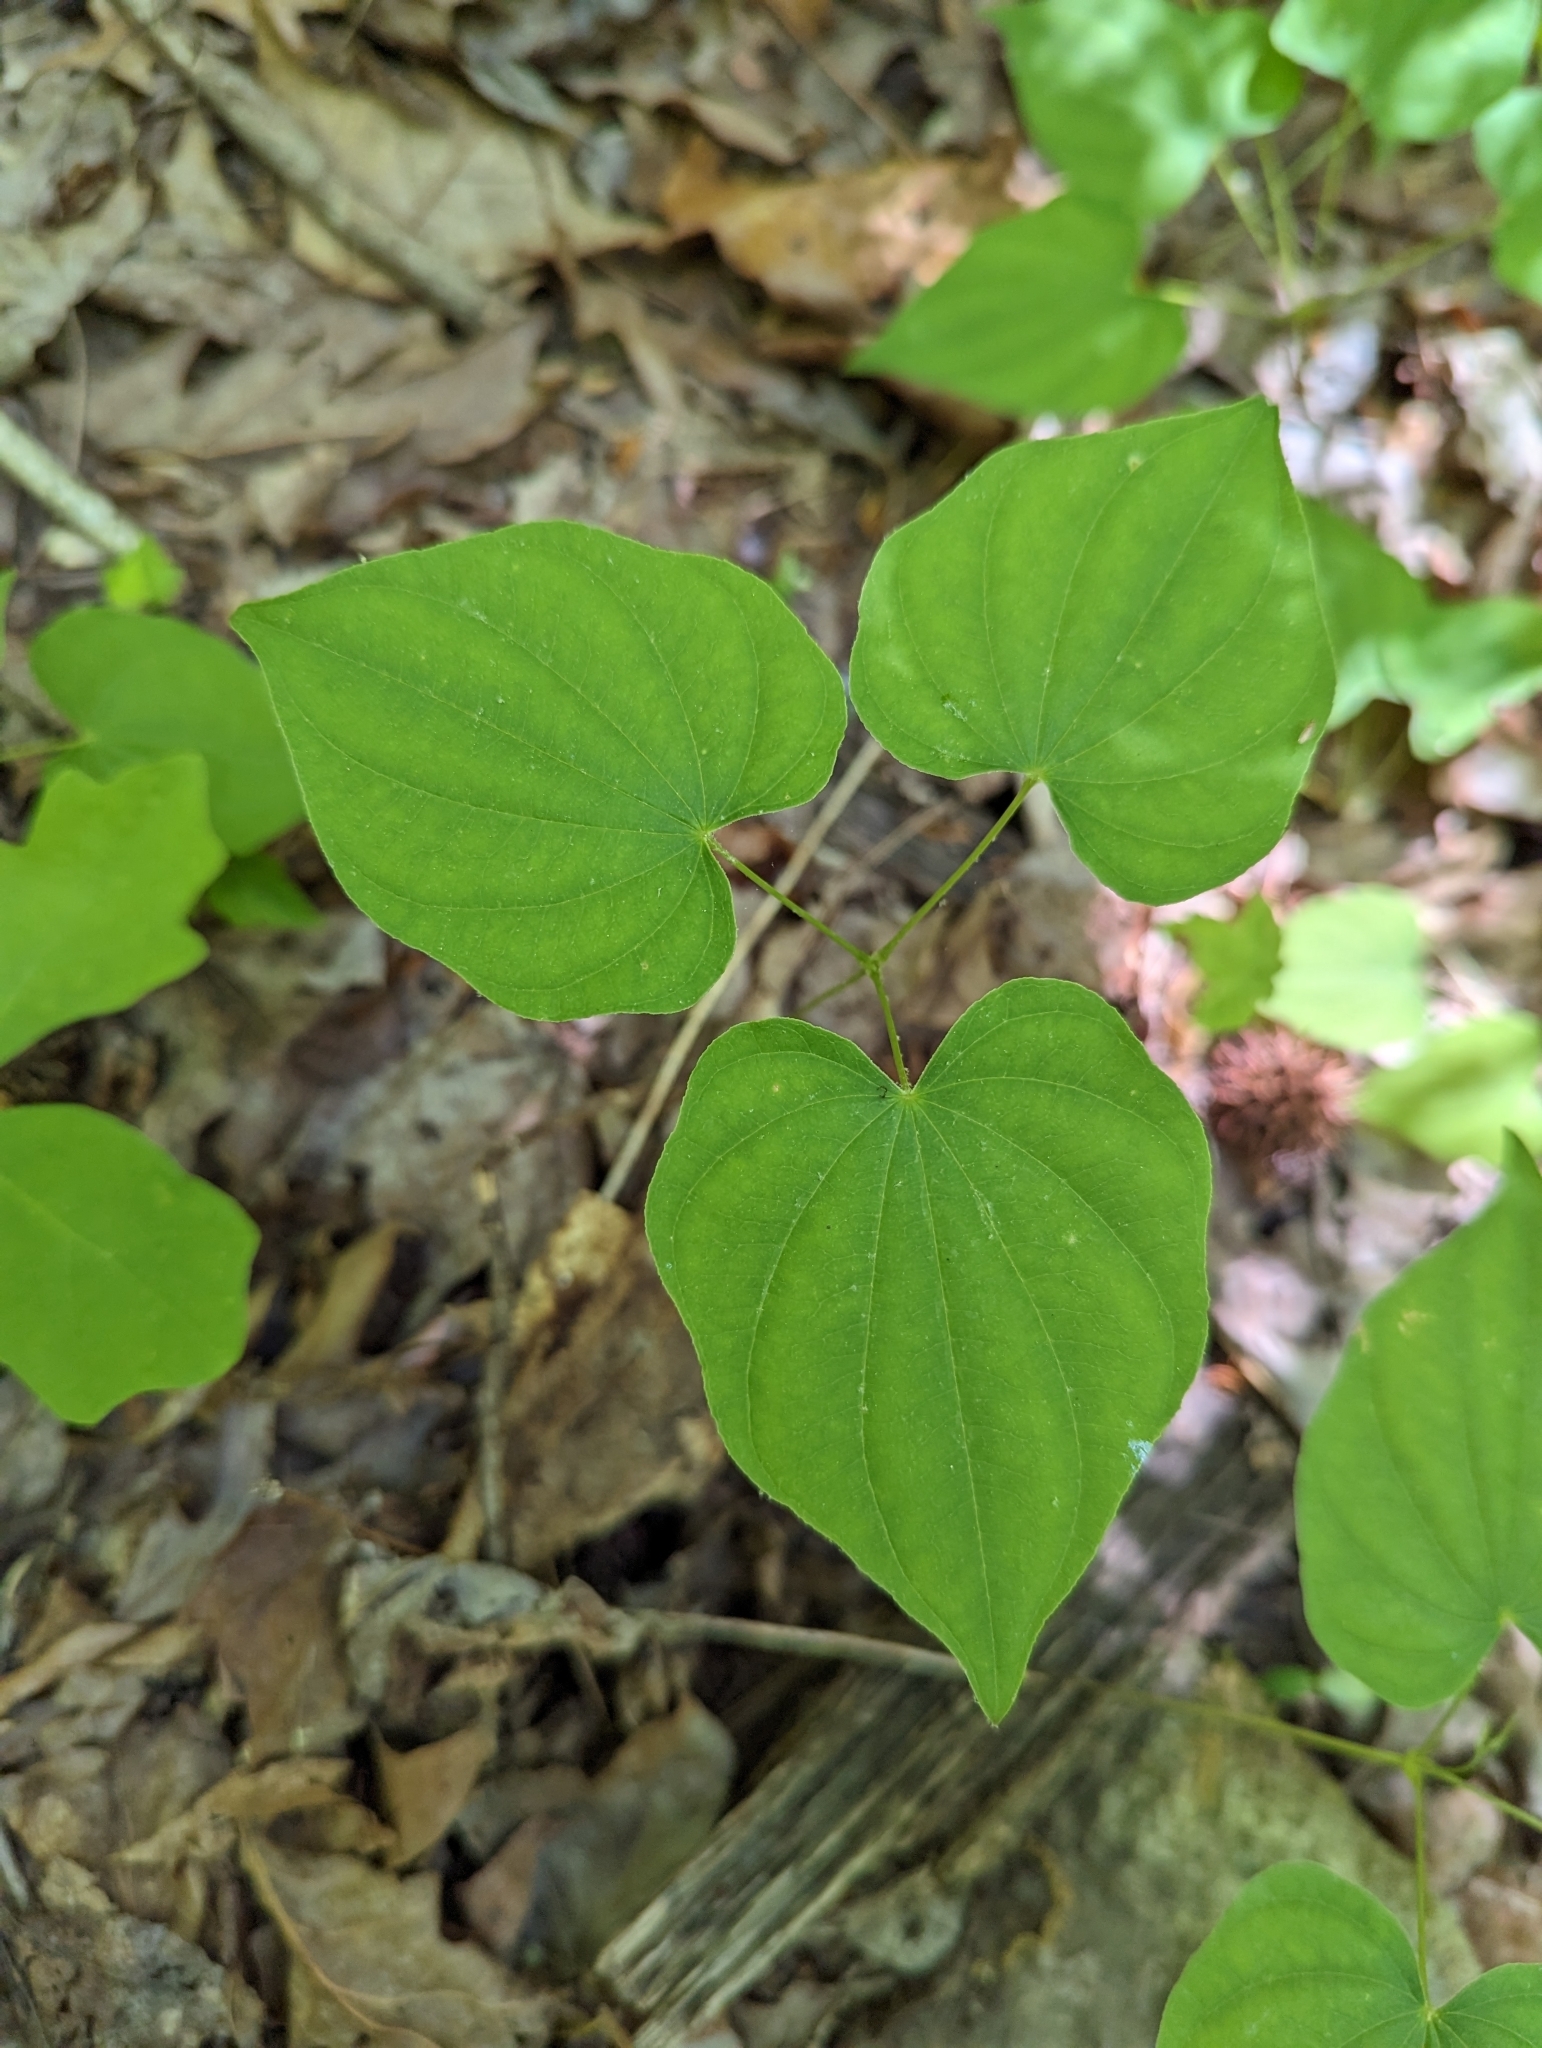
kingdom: Plantae
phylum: Tracheophyta
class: Liliopsida
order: Dioscoreales
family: Dioscoreaceae
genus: Dioscorea
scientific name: Dioscorea villosa
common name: Wild yam
